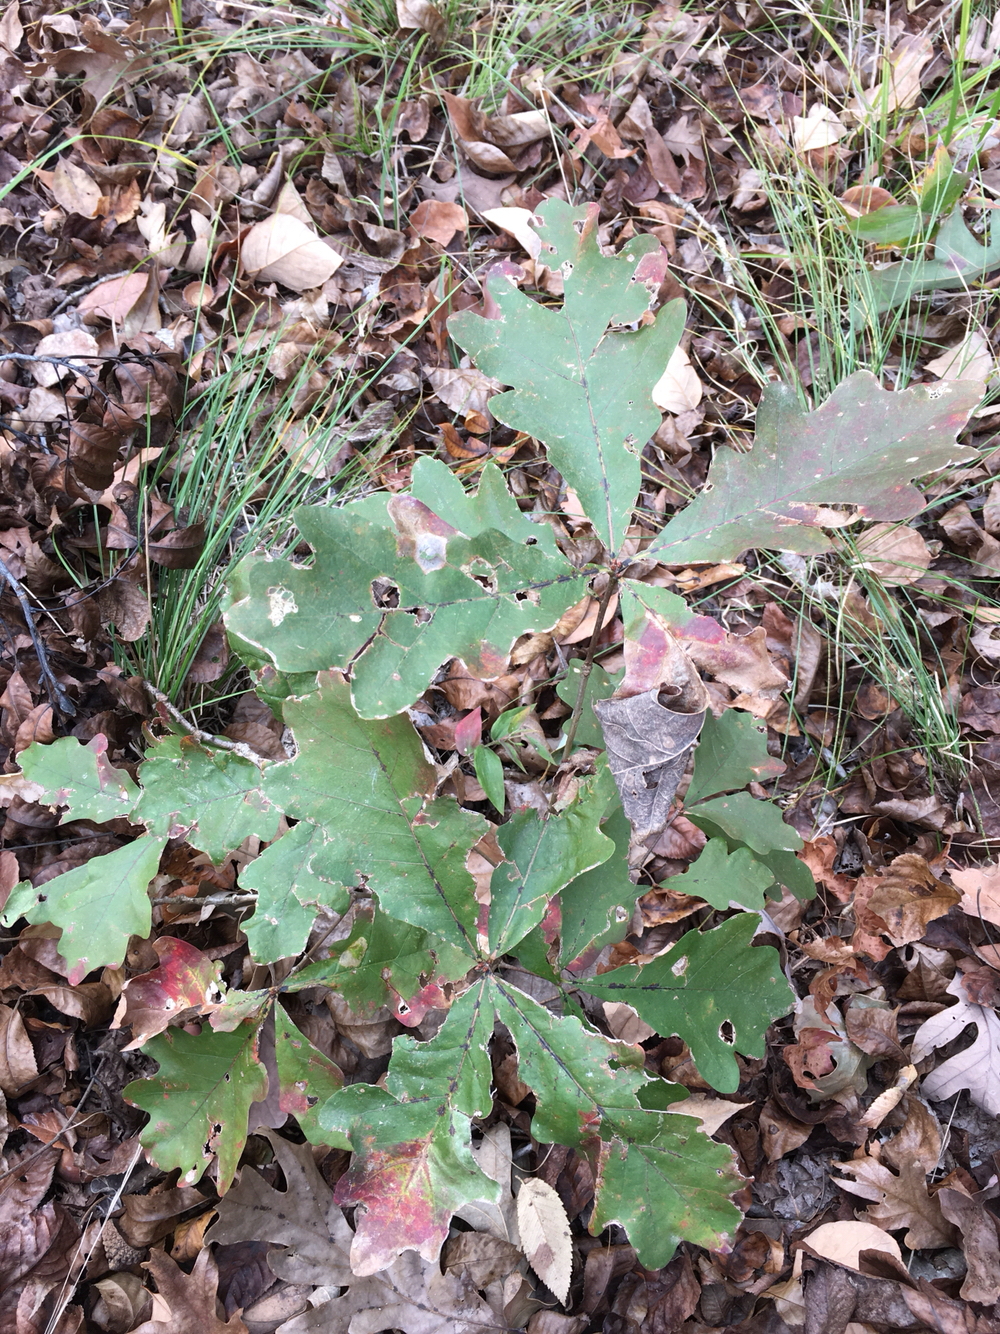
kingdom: Plantae
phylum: Tracheophyta
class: Magnoliopsida
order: Fagales
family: Fagaceae
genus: Quercus
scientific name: Quercus alba
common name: White oak
